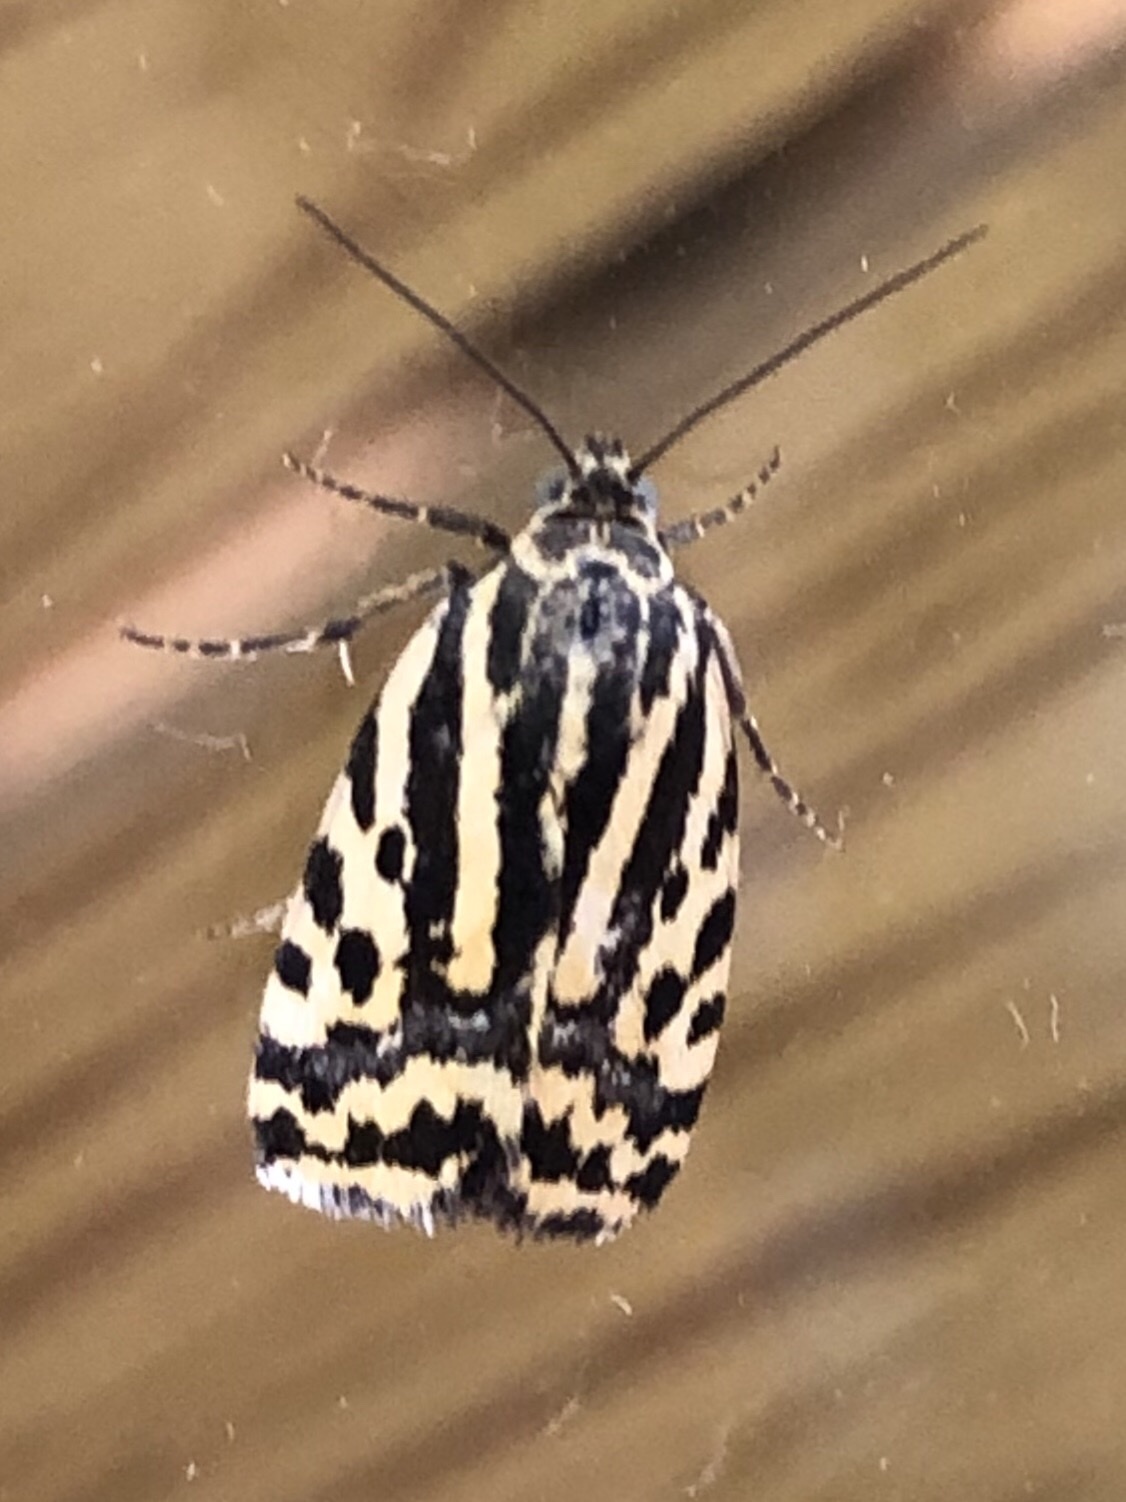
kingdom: Animalia
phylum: Arthropoda
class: Insecta
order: Lepidoptera
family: Noctuidae
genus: Acontia
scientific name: Acontia trabealis
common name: Spotted sulphur
